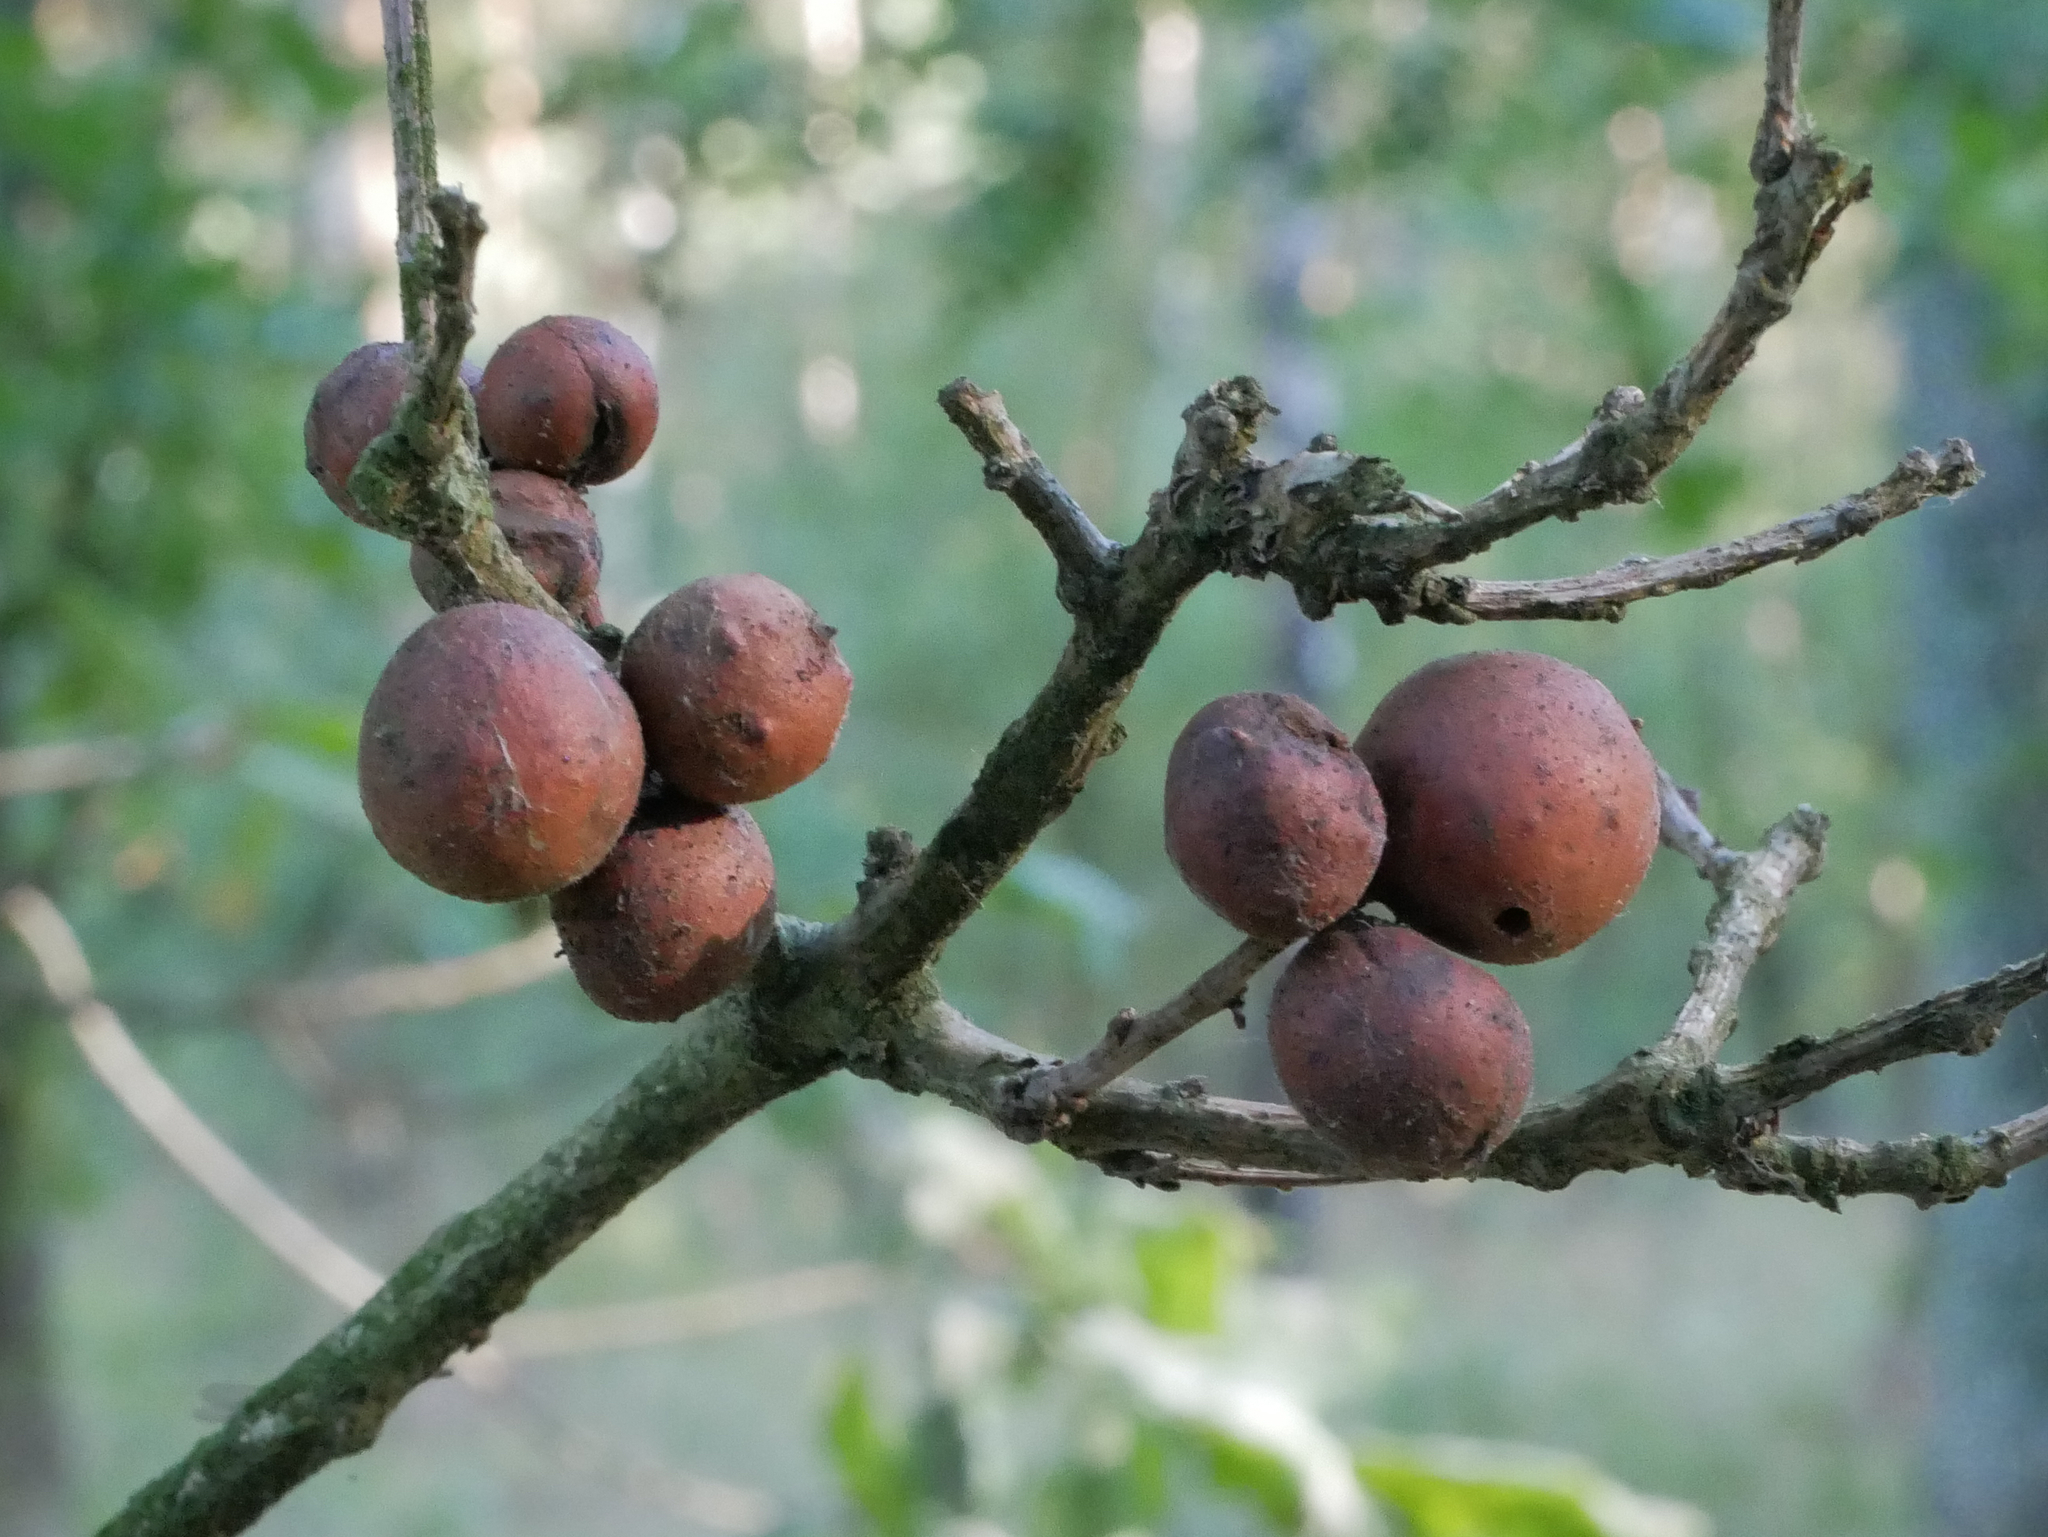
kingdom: Animalia
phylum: Arthropoda
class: Insecta
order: Hymenoptera
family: Cynipidae
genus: Andricus
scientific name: Andricus kollari
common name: Marble gall
